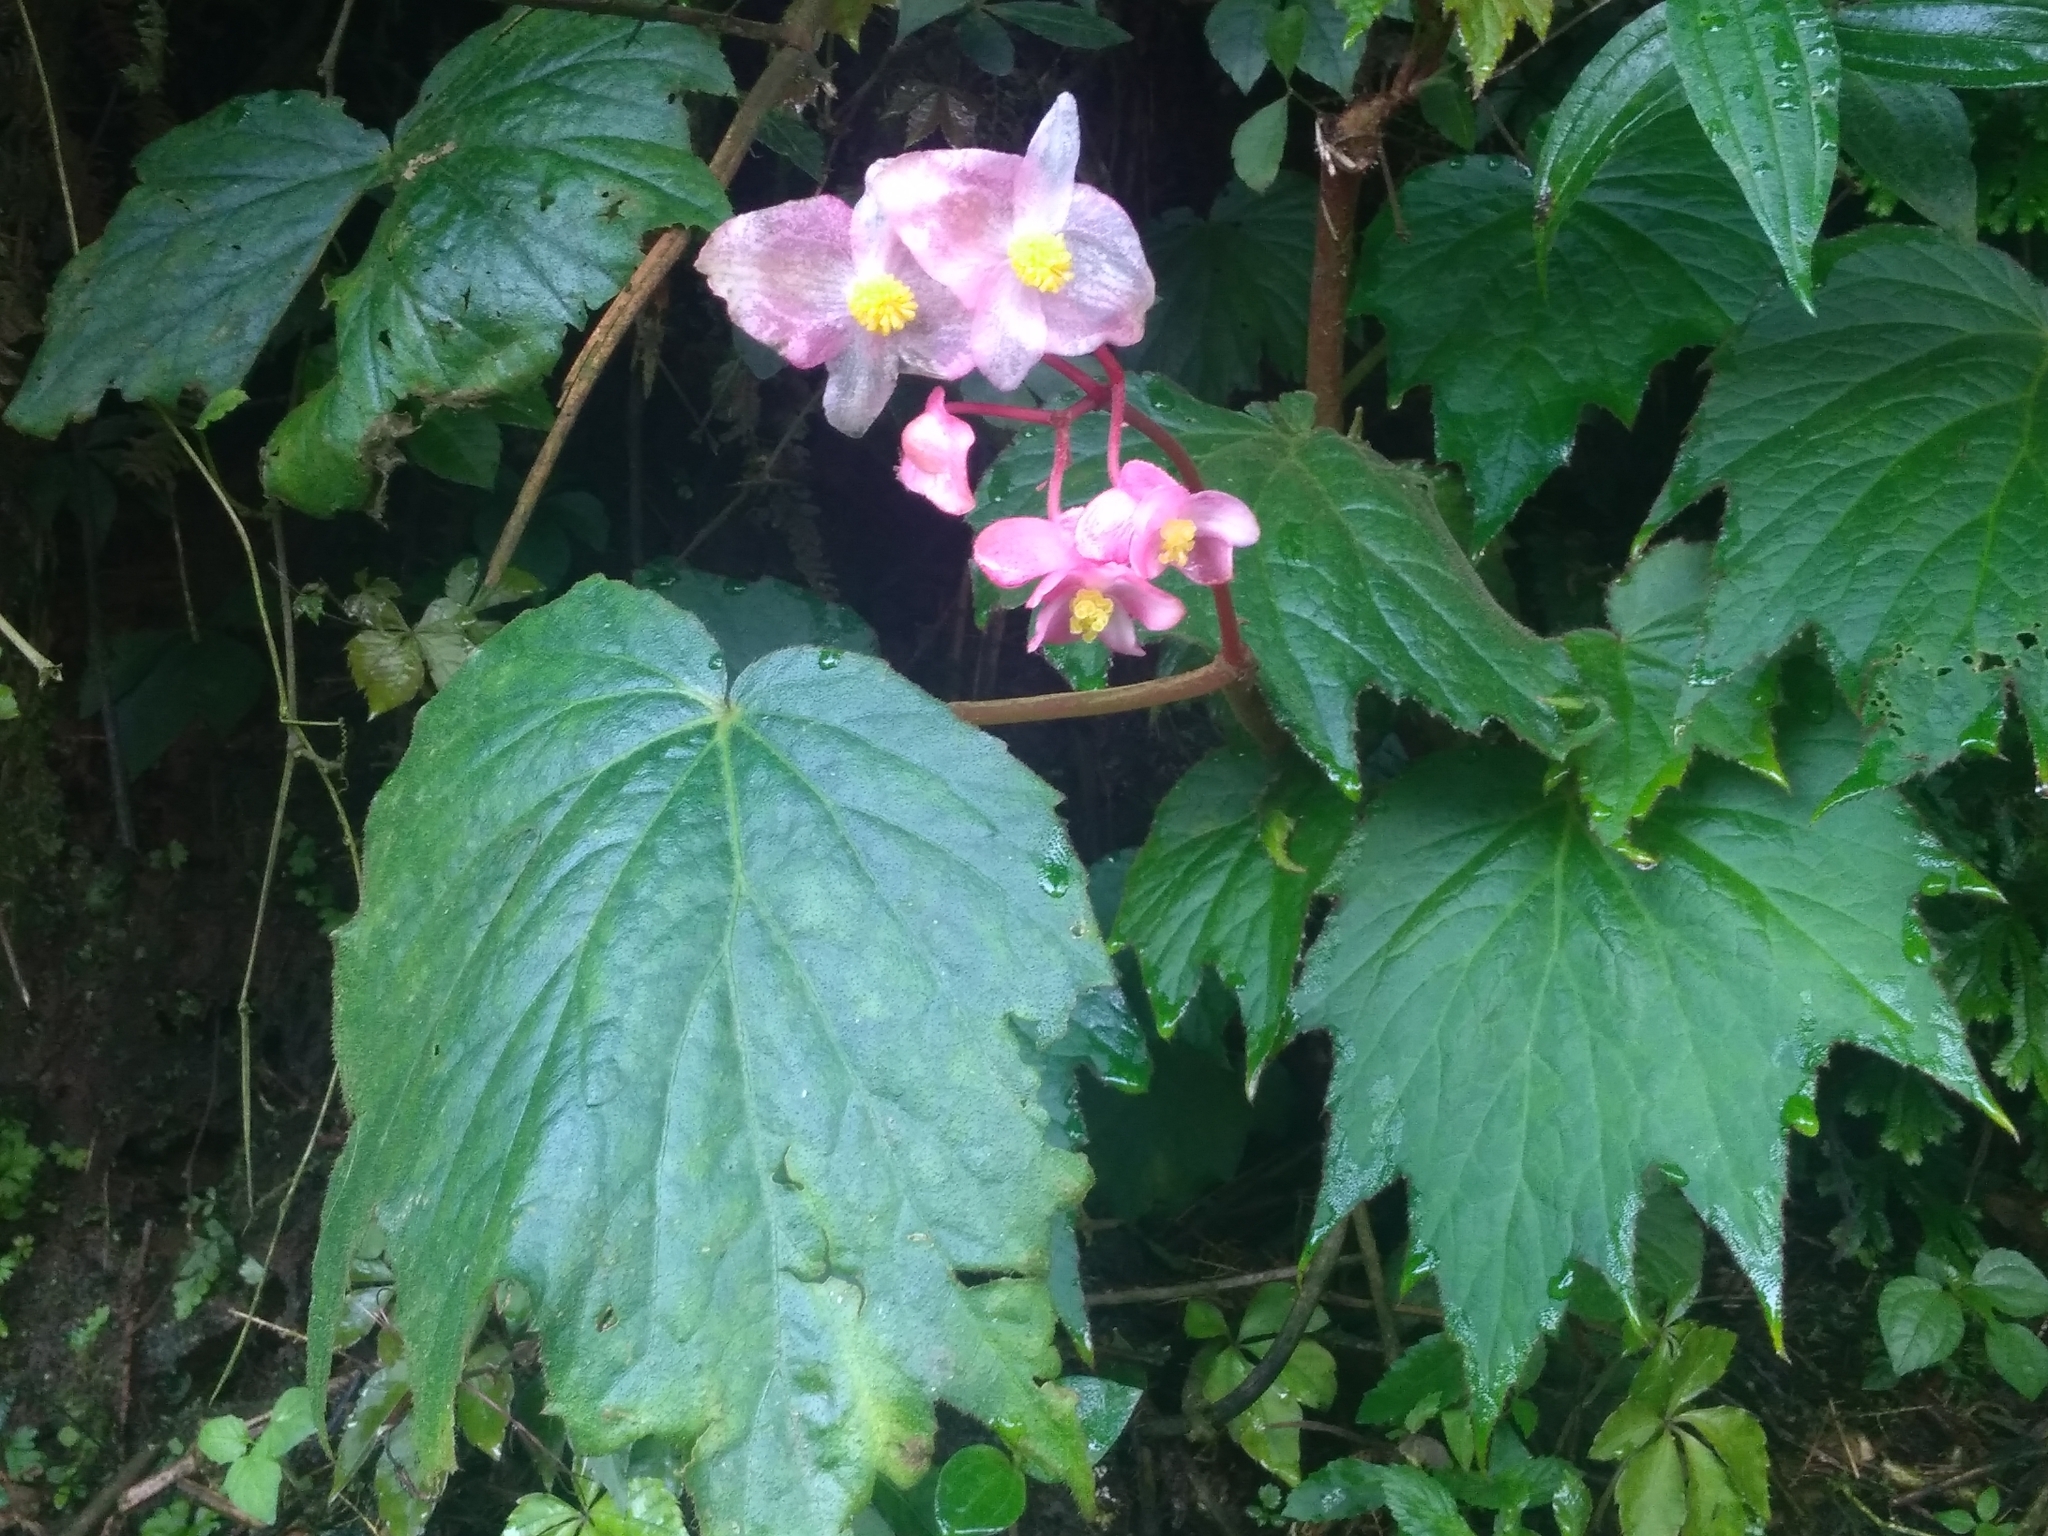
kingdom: Plantae
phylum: Tracheophyta
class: Magnoliopsida
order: Cucurbitales
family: Begoniaceae
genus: Begonia
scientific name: Begonia palmata
